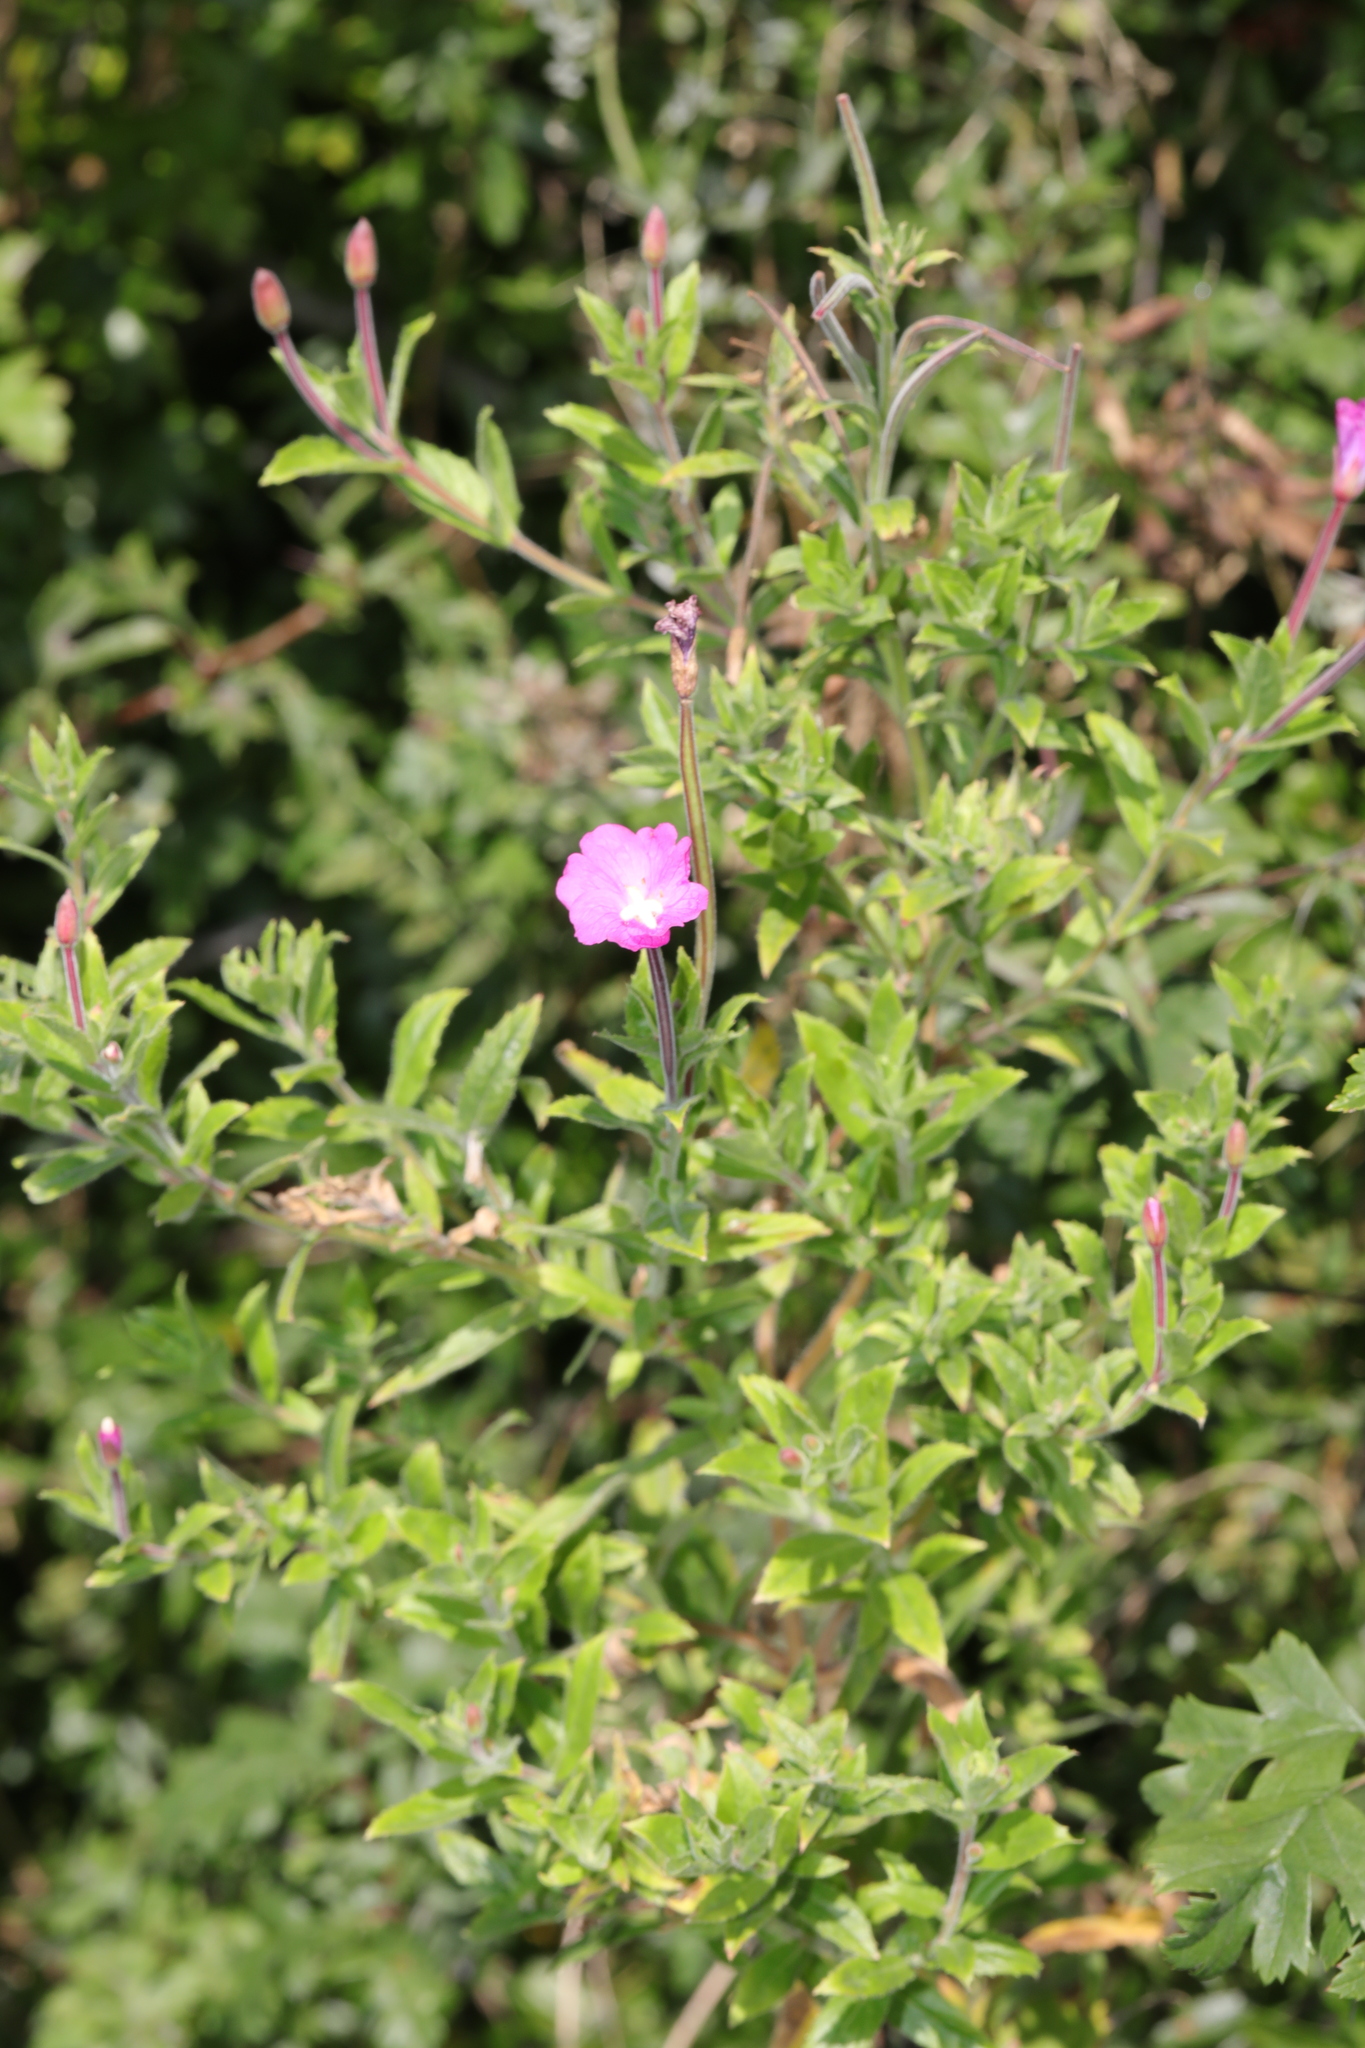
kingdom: Plantae
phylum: Tracheophyta
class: Magnoliopsida
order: Myrtales
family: Onagraceae
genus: Epilobium
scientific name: Epilobium hirsutum
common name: Great willowherb
